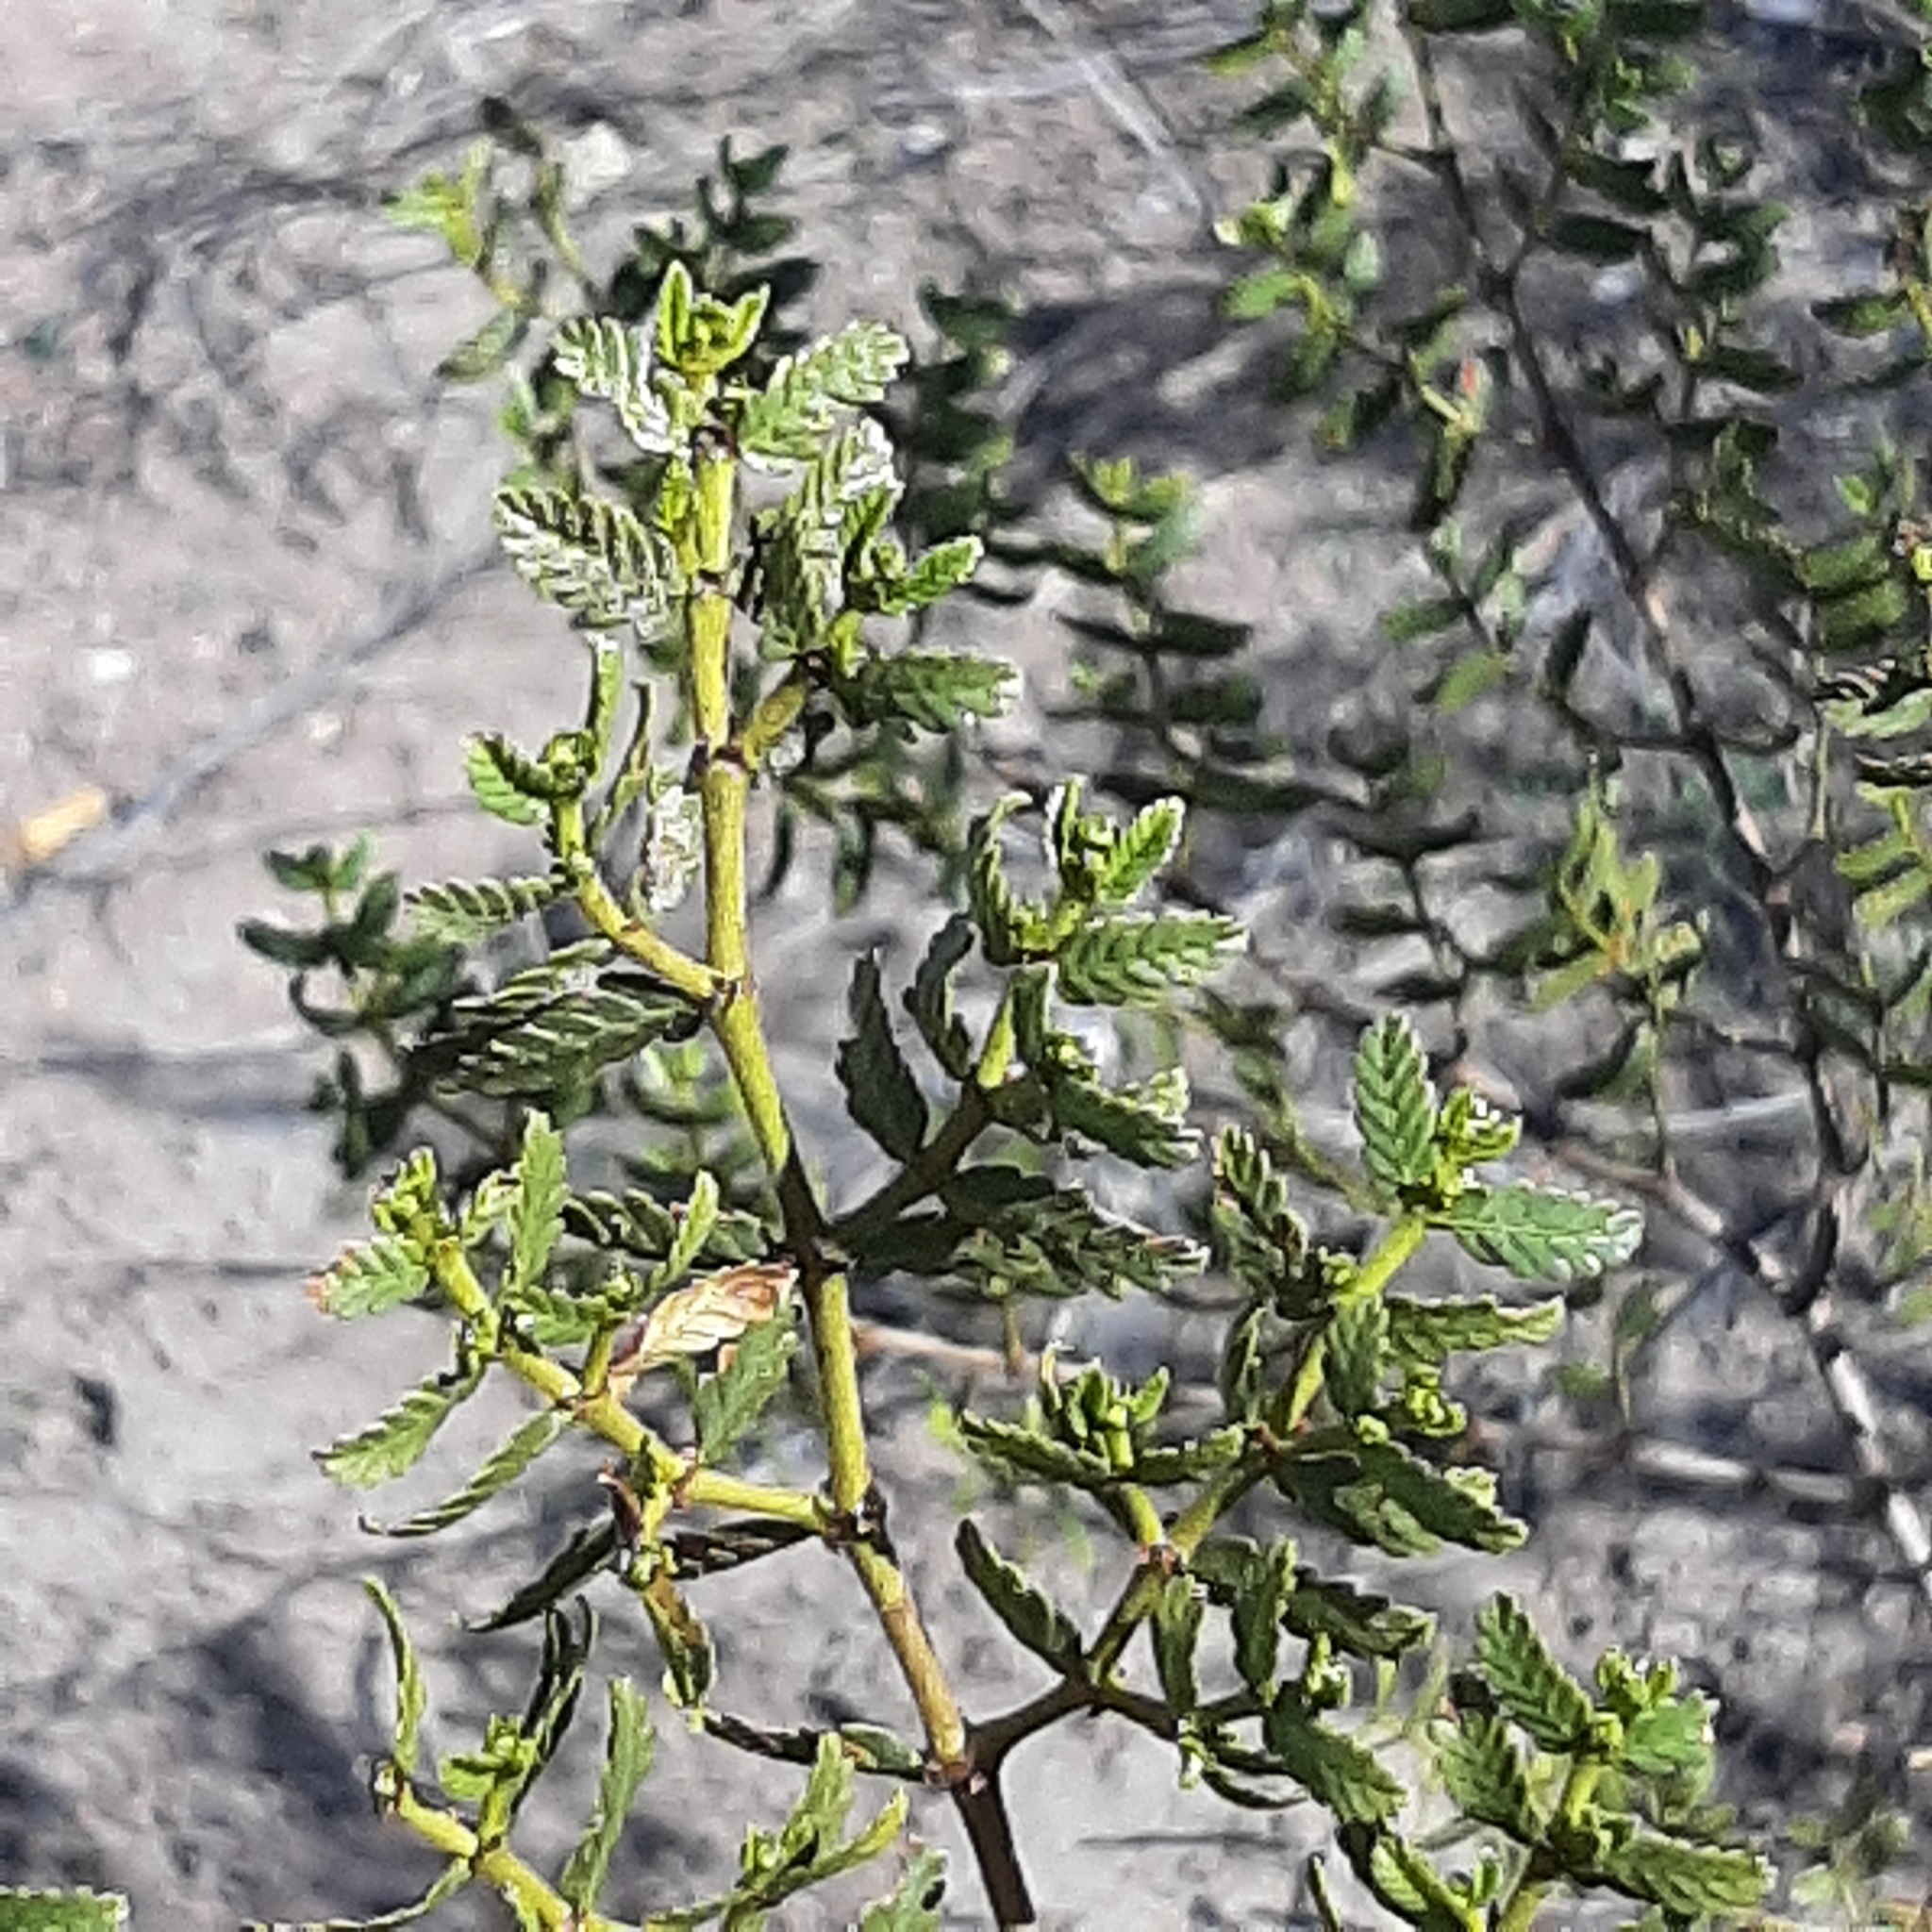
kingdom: Plantae
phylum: Tracheophyta
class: Magnoliopsida
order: Zygophyllales
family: Zygophyllaceae
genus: Larrea
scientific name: Larrea nitida
